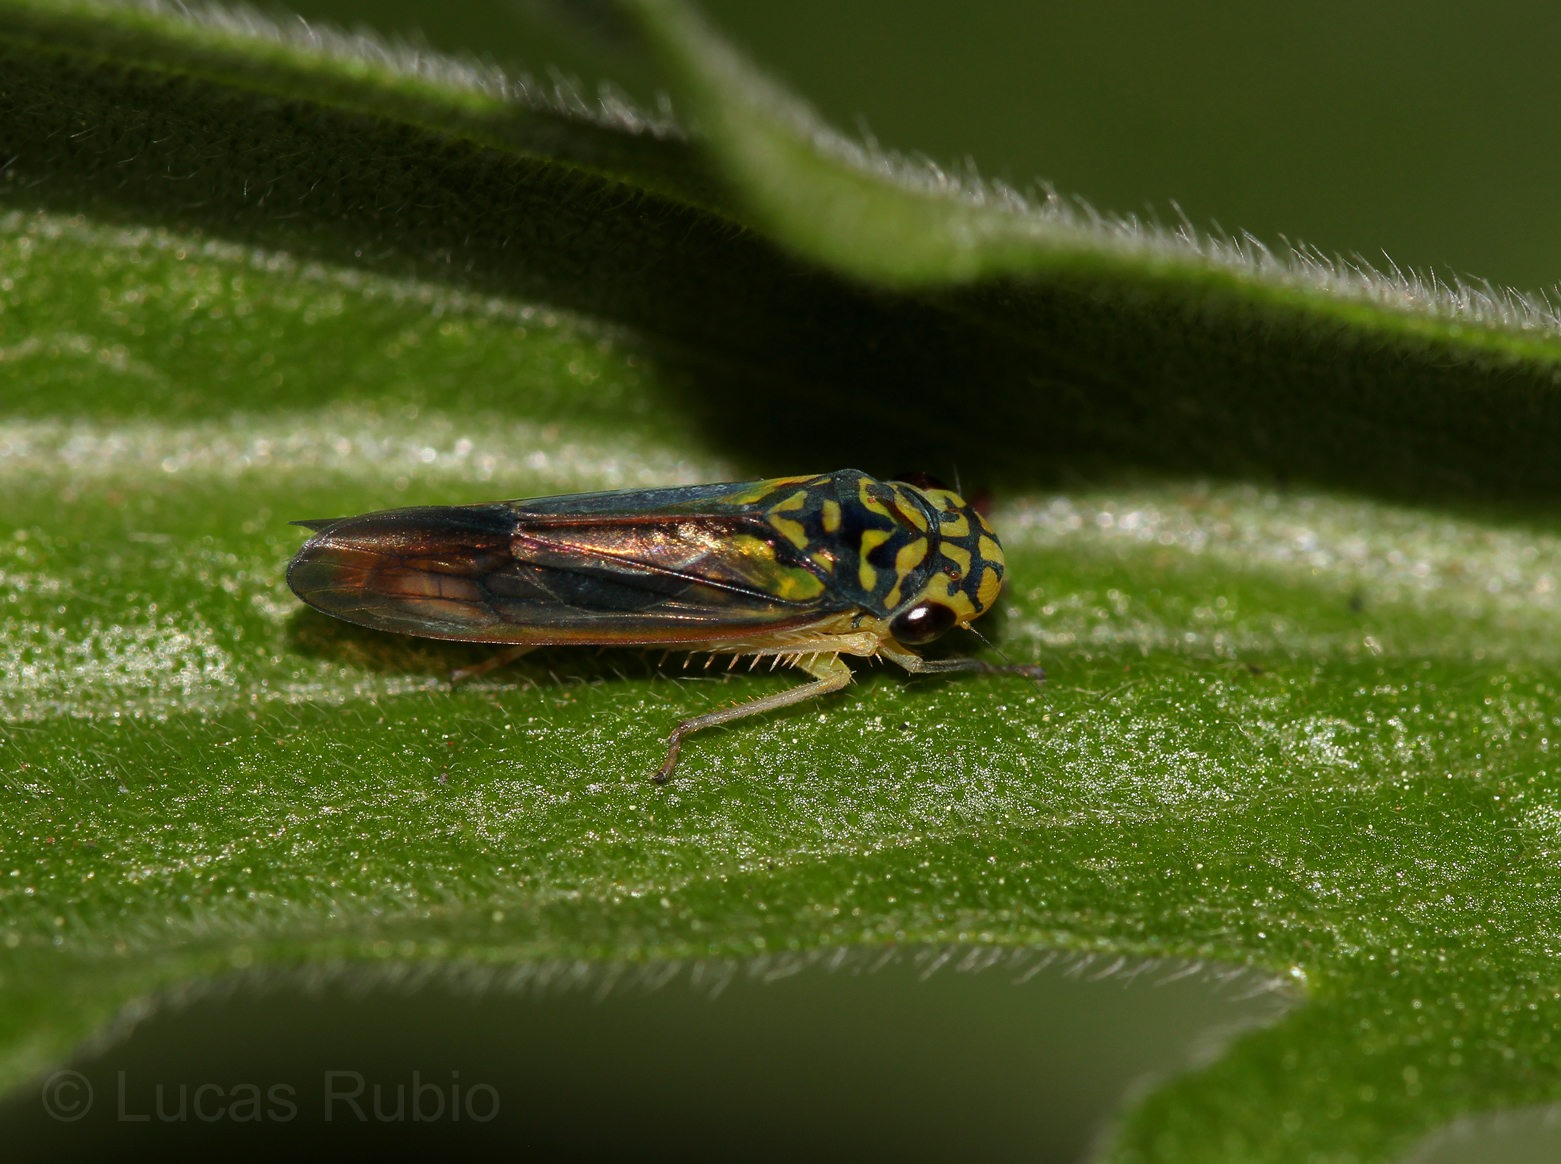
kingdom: Animalia
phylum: Arthropoda
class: Insecta
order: Hemiptera
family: Cicadellidae
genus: Dilobopterus
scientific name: Dilobopterus costalimai
